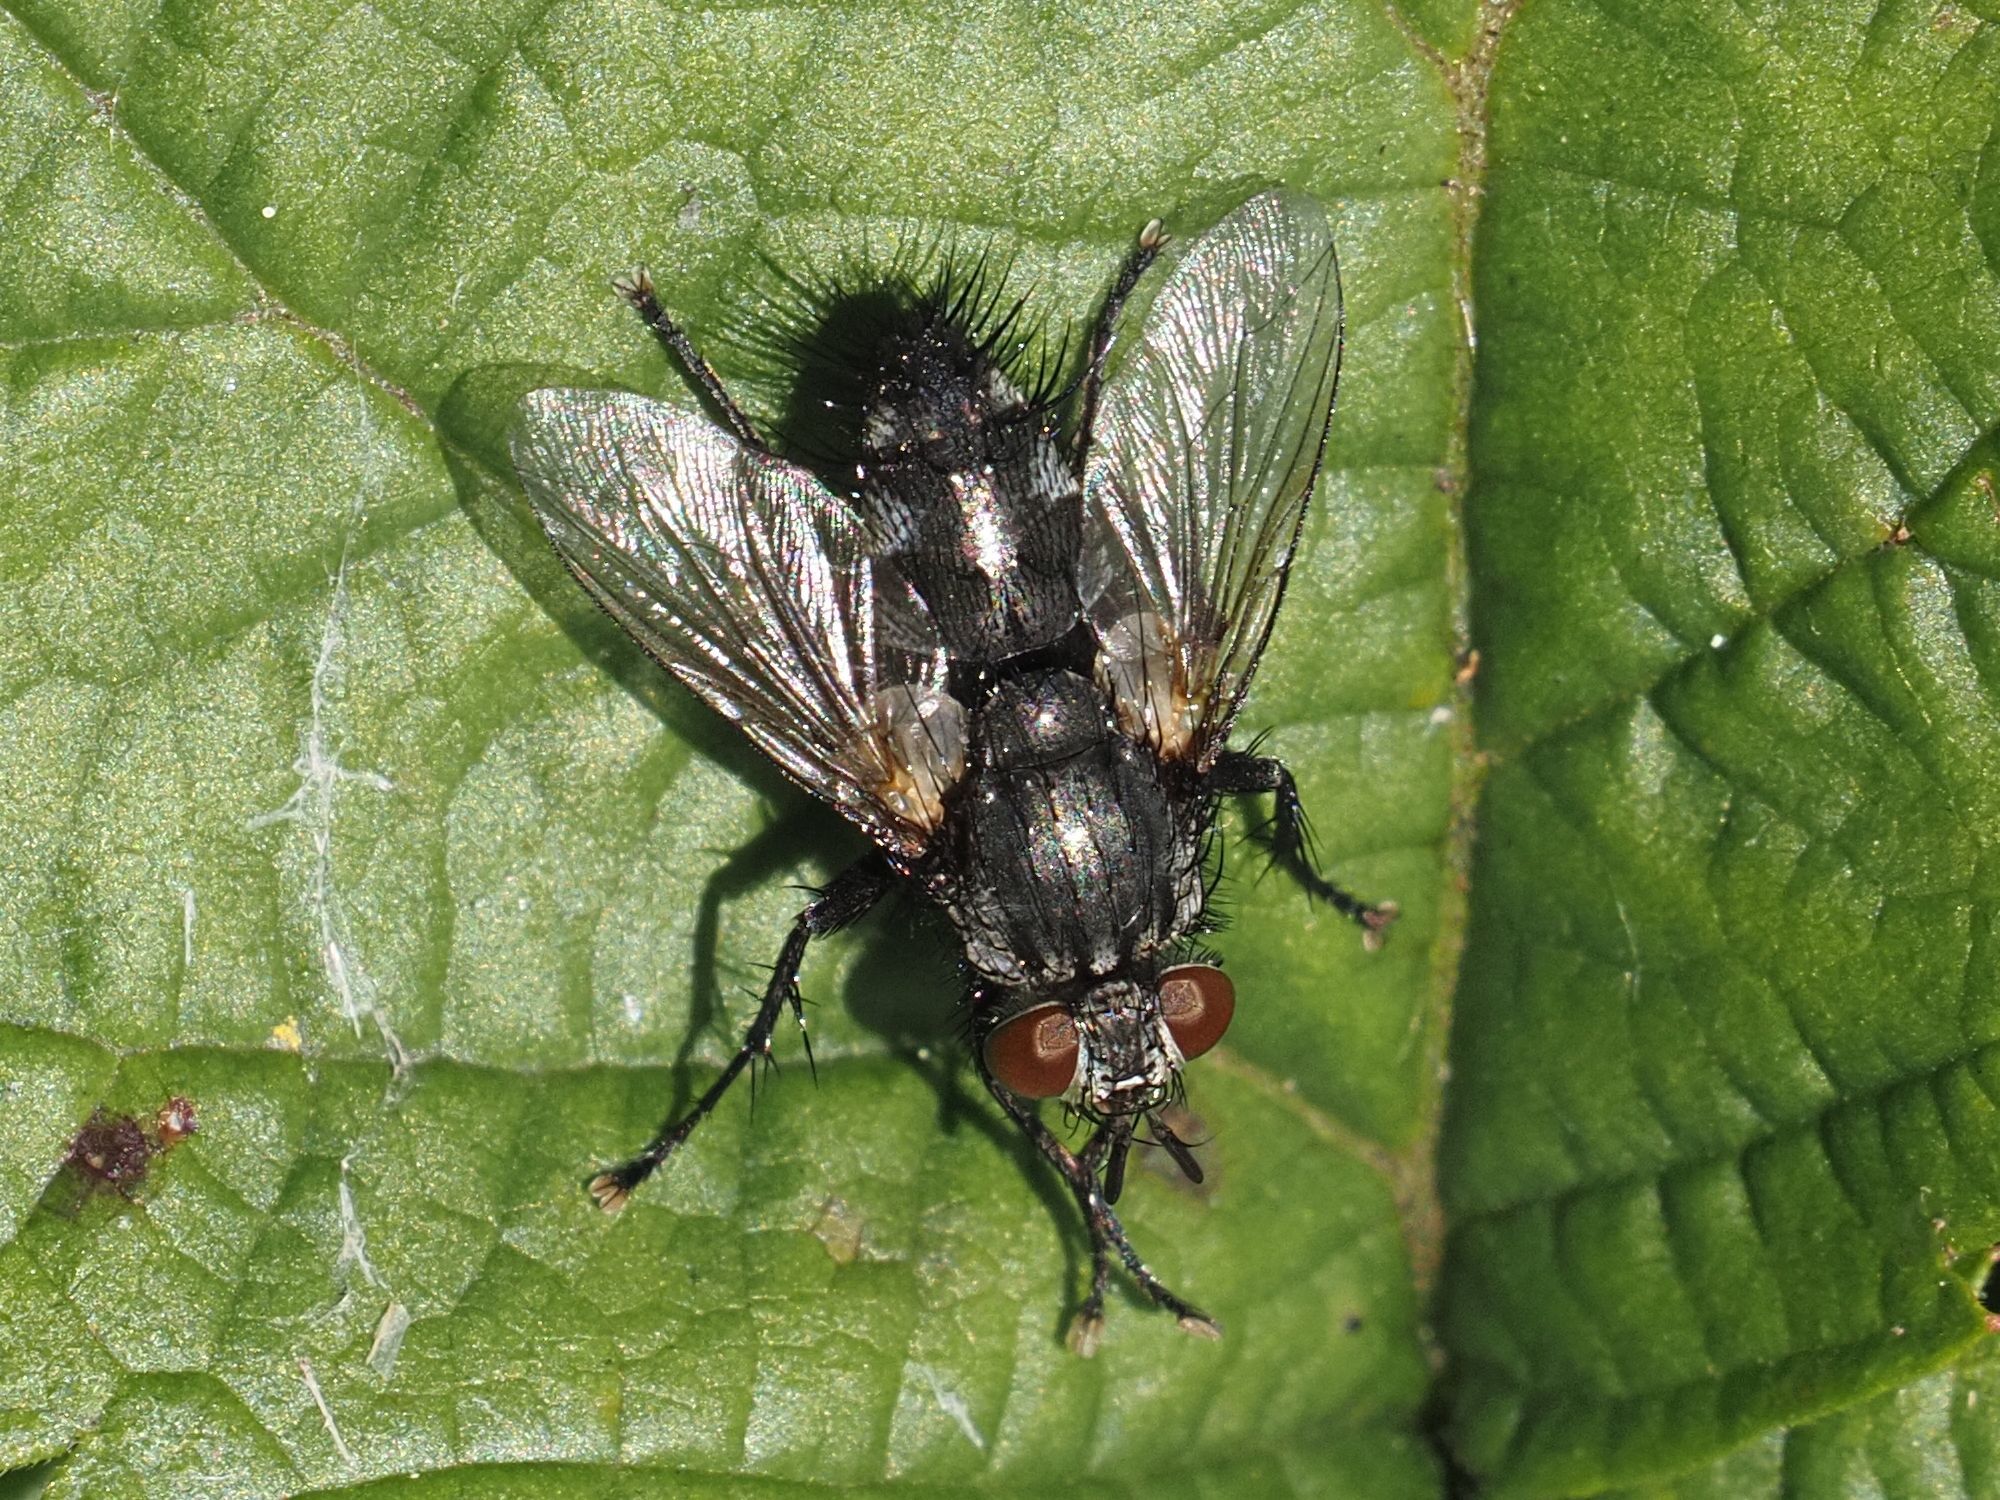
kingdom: Animalia
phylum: Arthropoda
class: Insecta
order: Diptera
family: Tachinidae
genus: Voria
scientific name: Voria ruralis
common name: Parasitic fly
